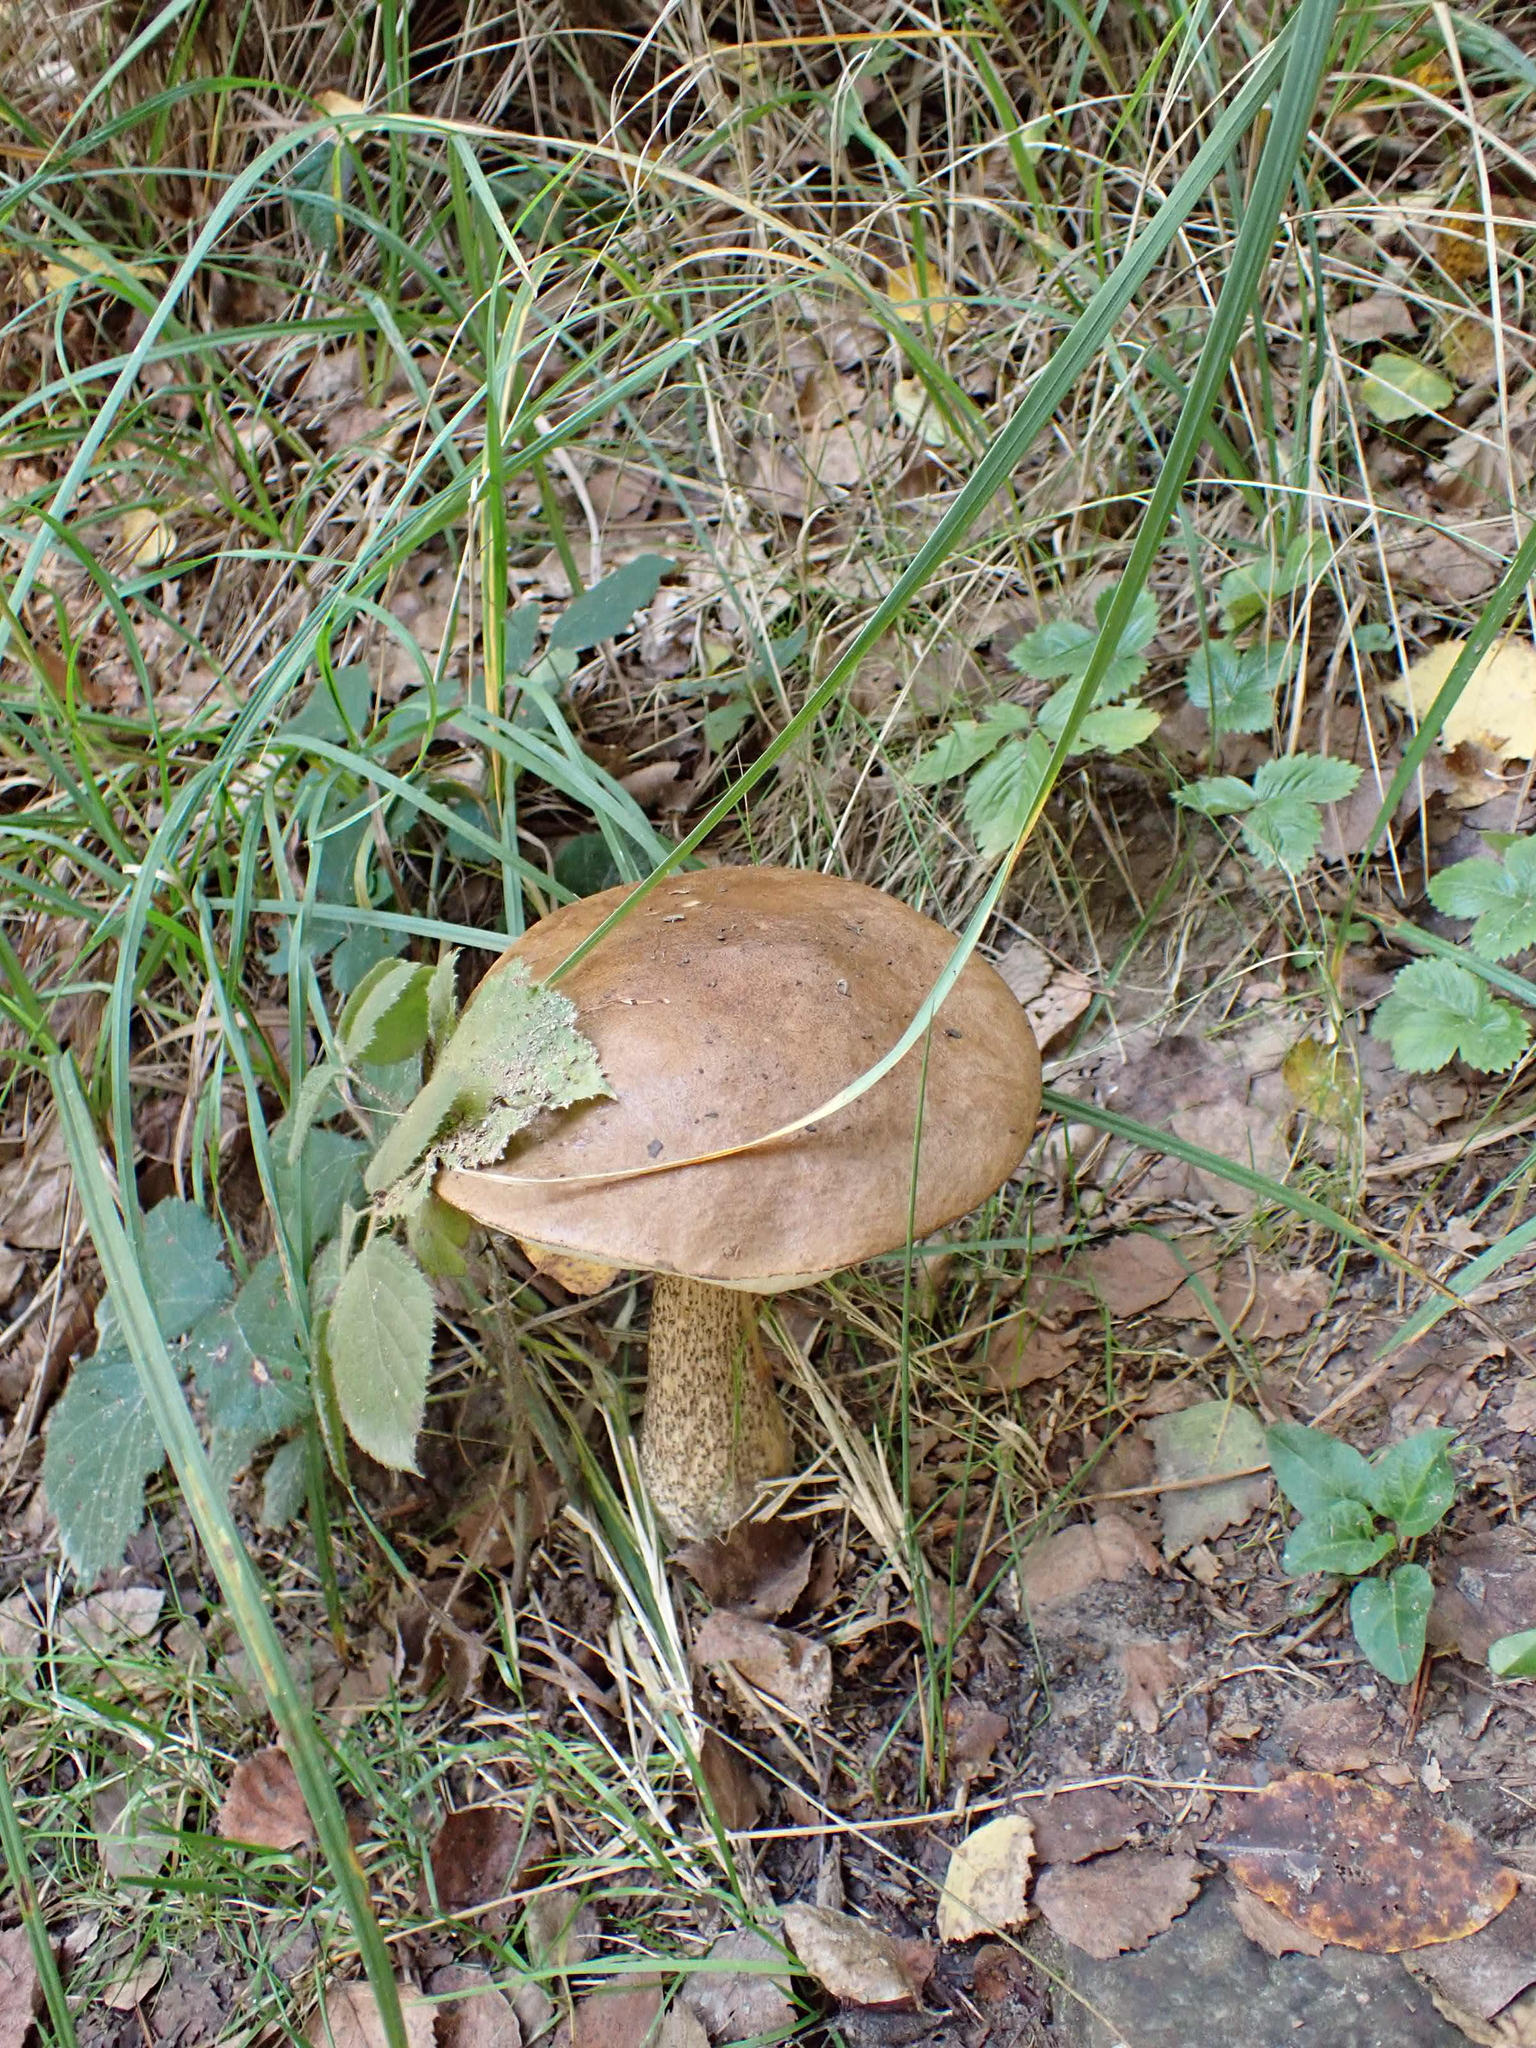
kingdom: Fungi
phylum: Basidiomycota
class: Agaricomycetes
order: Boletales
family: Boletaceae
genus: Leccinum
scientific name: Leccinum scabrum
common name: Blushing bolete
